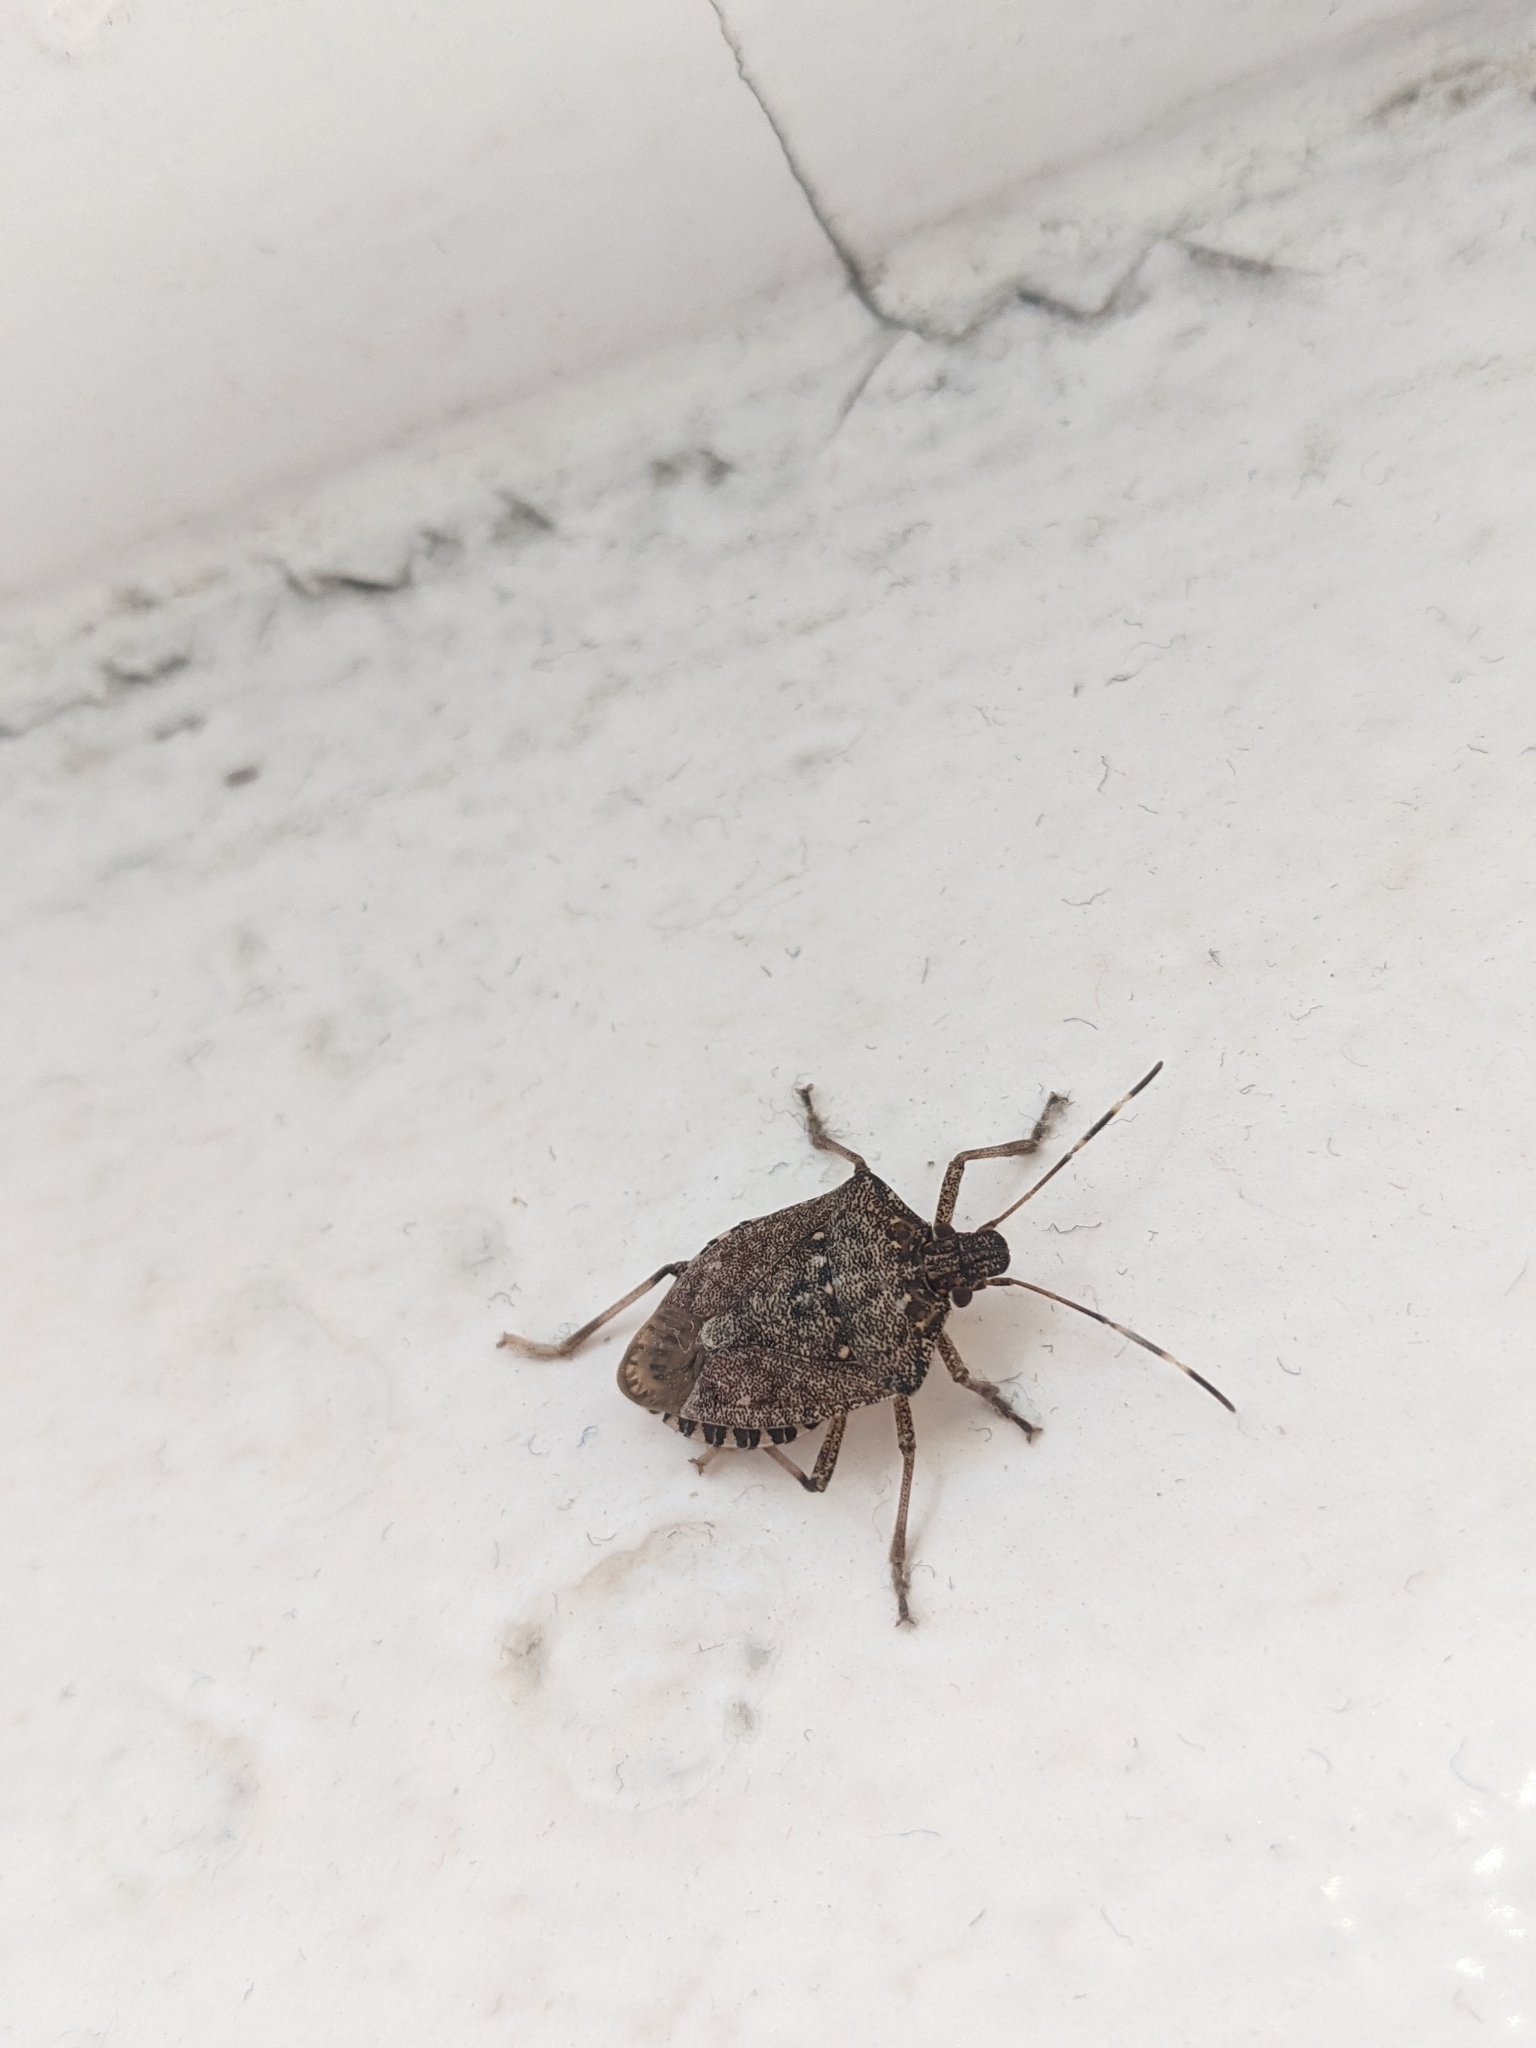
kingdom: Animalia
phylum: Arthropoda
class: Insecta
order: Hemiptera
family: Pentatomidae
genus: Halyomorpha
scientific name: Halyomorpha halys
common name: Brown marmorated stink bug
